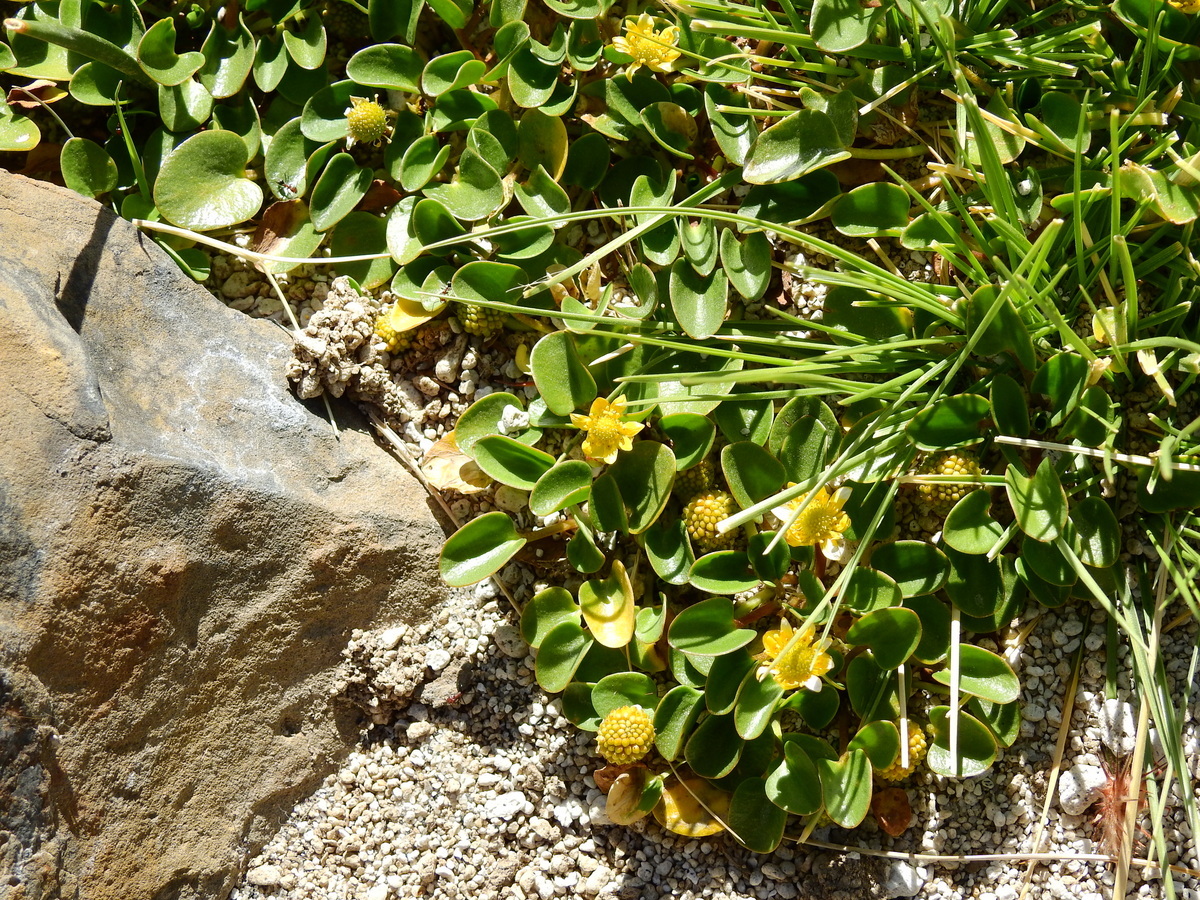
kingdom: Plantae
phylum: Tracheophyta
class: Magnoliopsida
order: Ranunculales
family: Ranunculaceae
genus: Halerpestes
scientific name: Halerpestes uniflora
